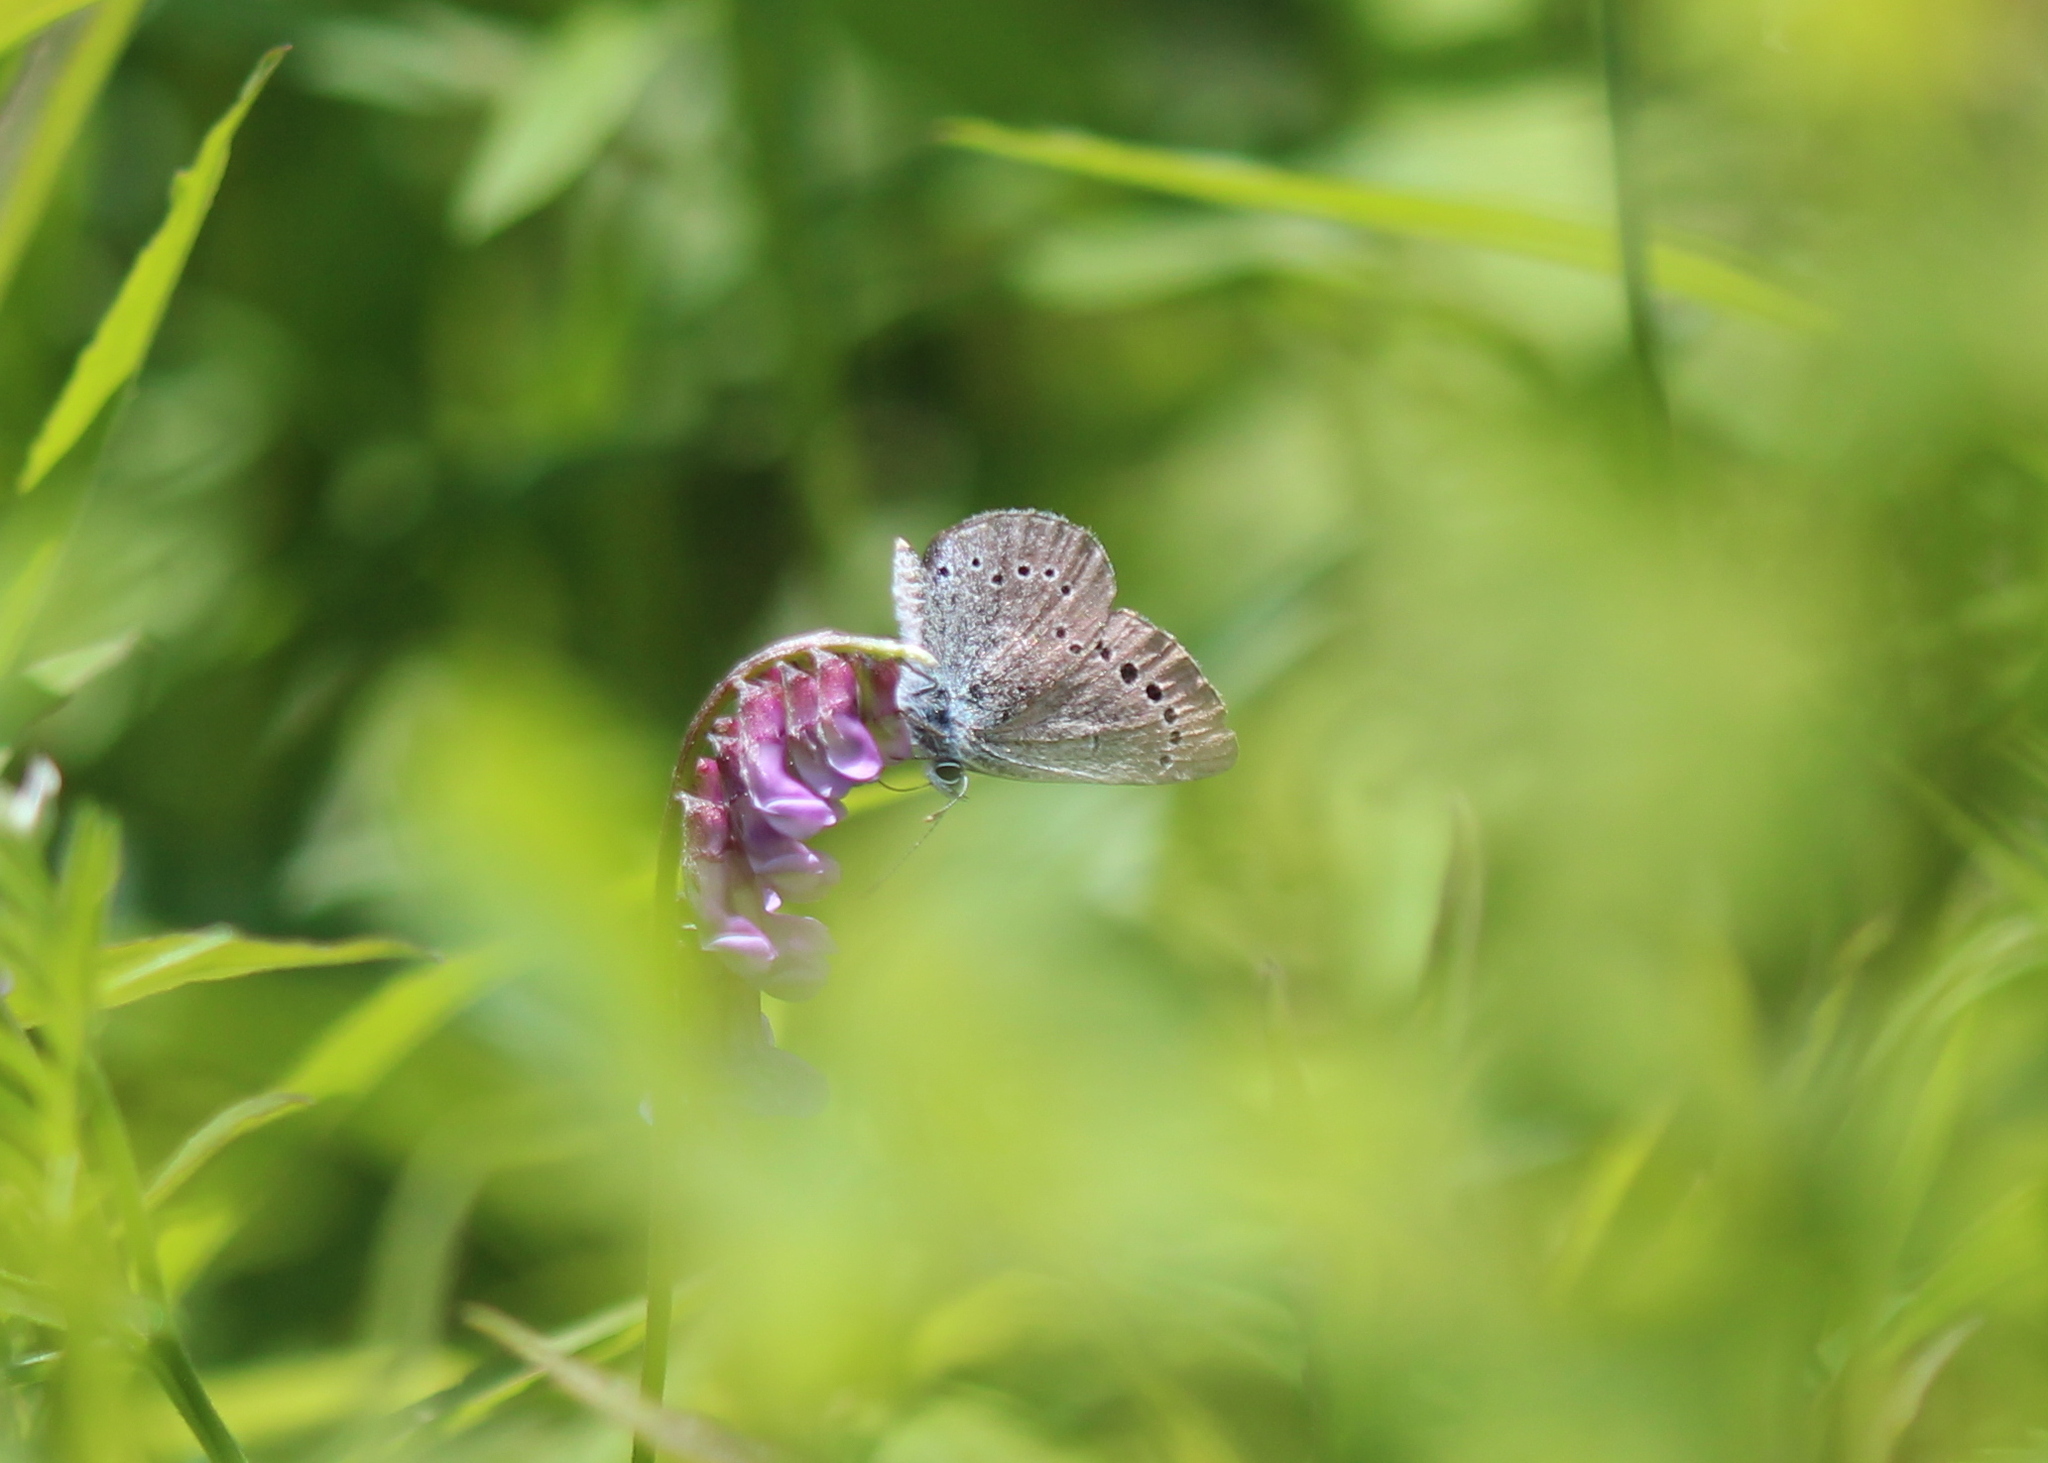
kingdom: Animalia
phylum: Arthropoda
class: Insecta
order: Lepidoptera
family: Lycaenidae
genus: Glaucopsyche
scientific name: Glaucopsyche lygdamus
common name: Silvery blue
